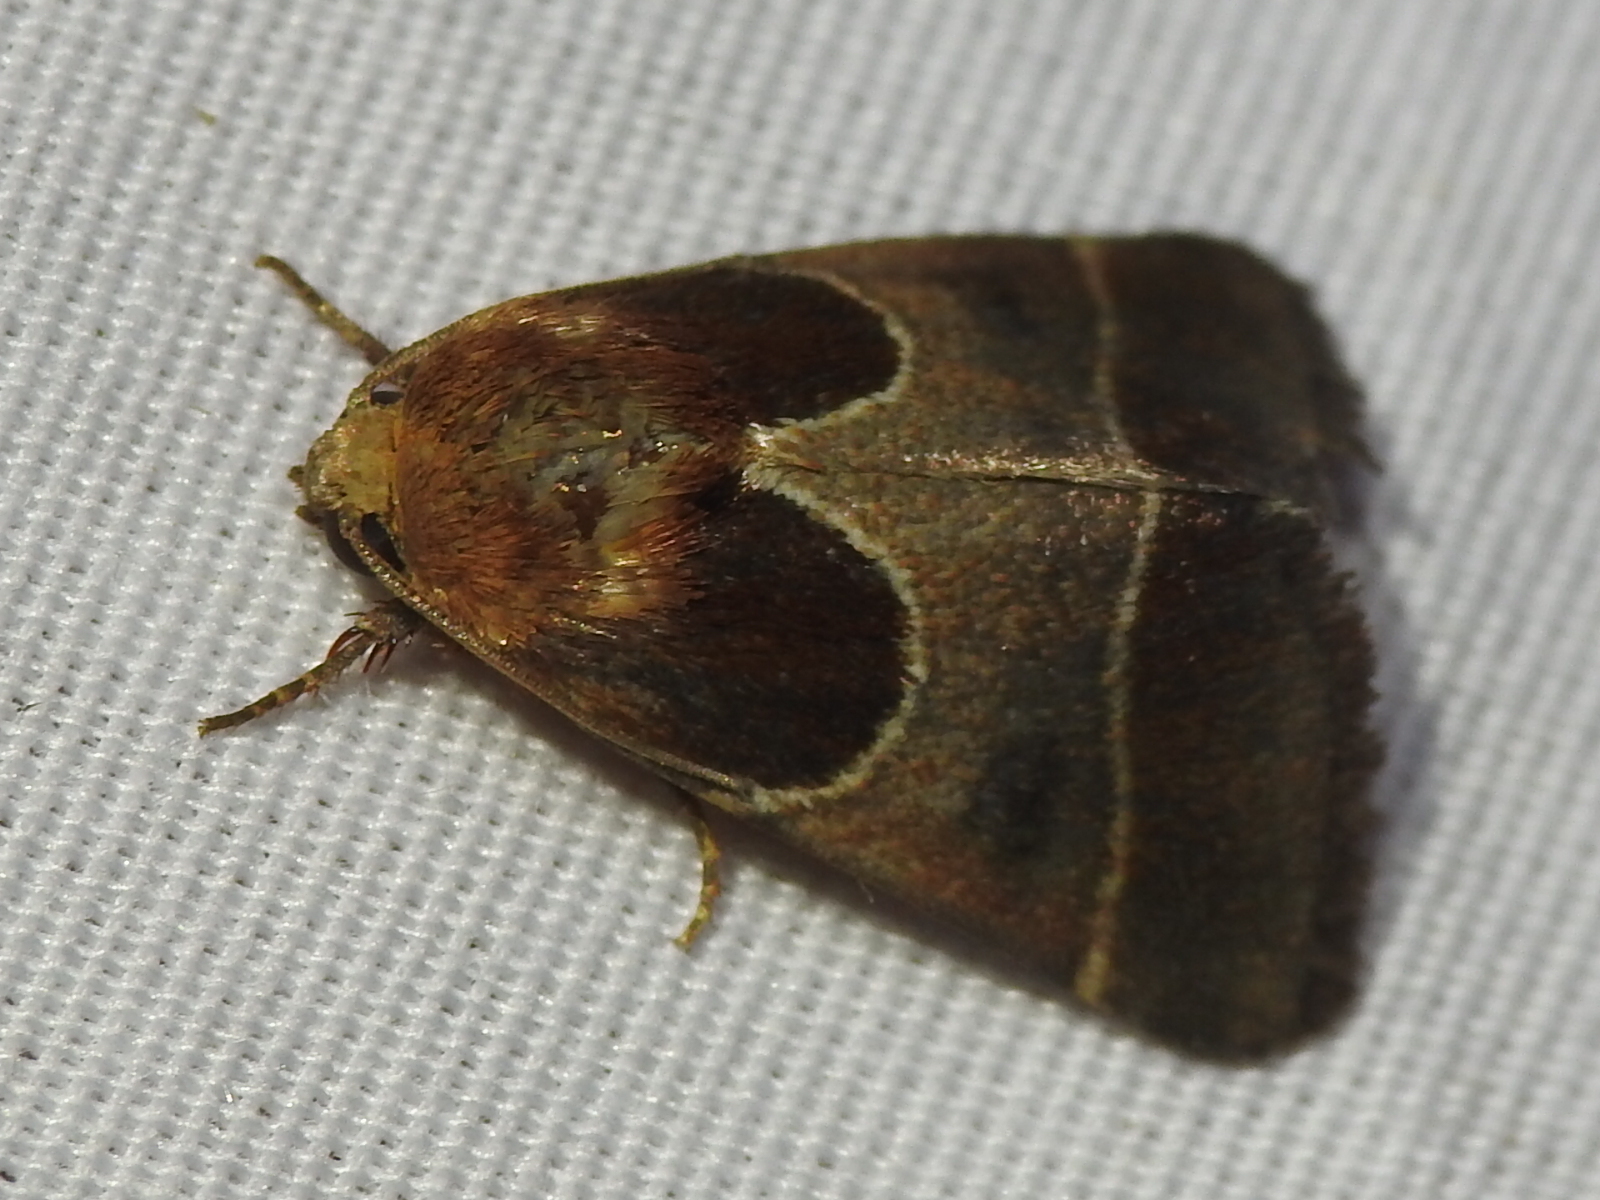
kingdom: Animalia
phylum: Arthropoda
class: Insecta
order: Lepidoptera
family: Noctuidae
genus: Schinia
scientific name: Schinia arcigera
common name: Arcigera flower moth
